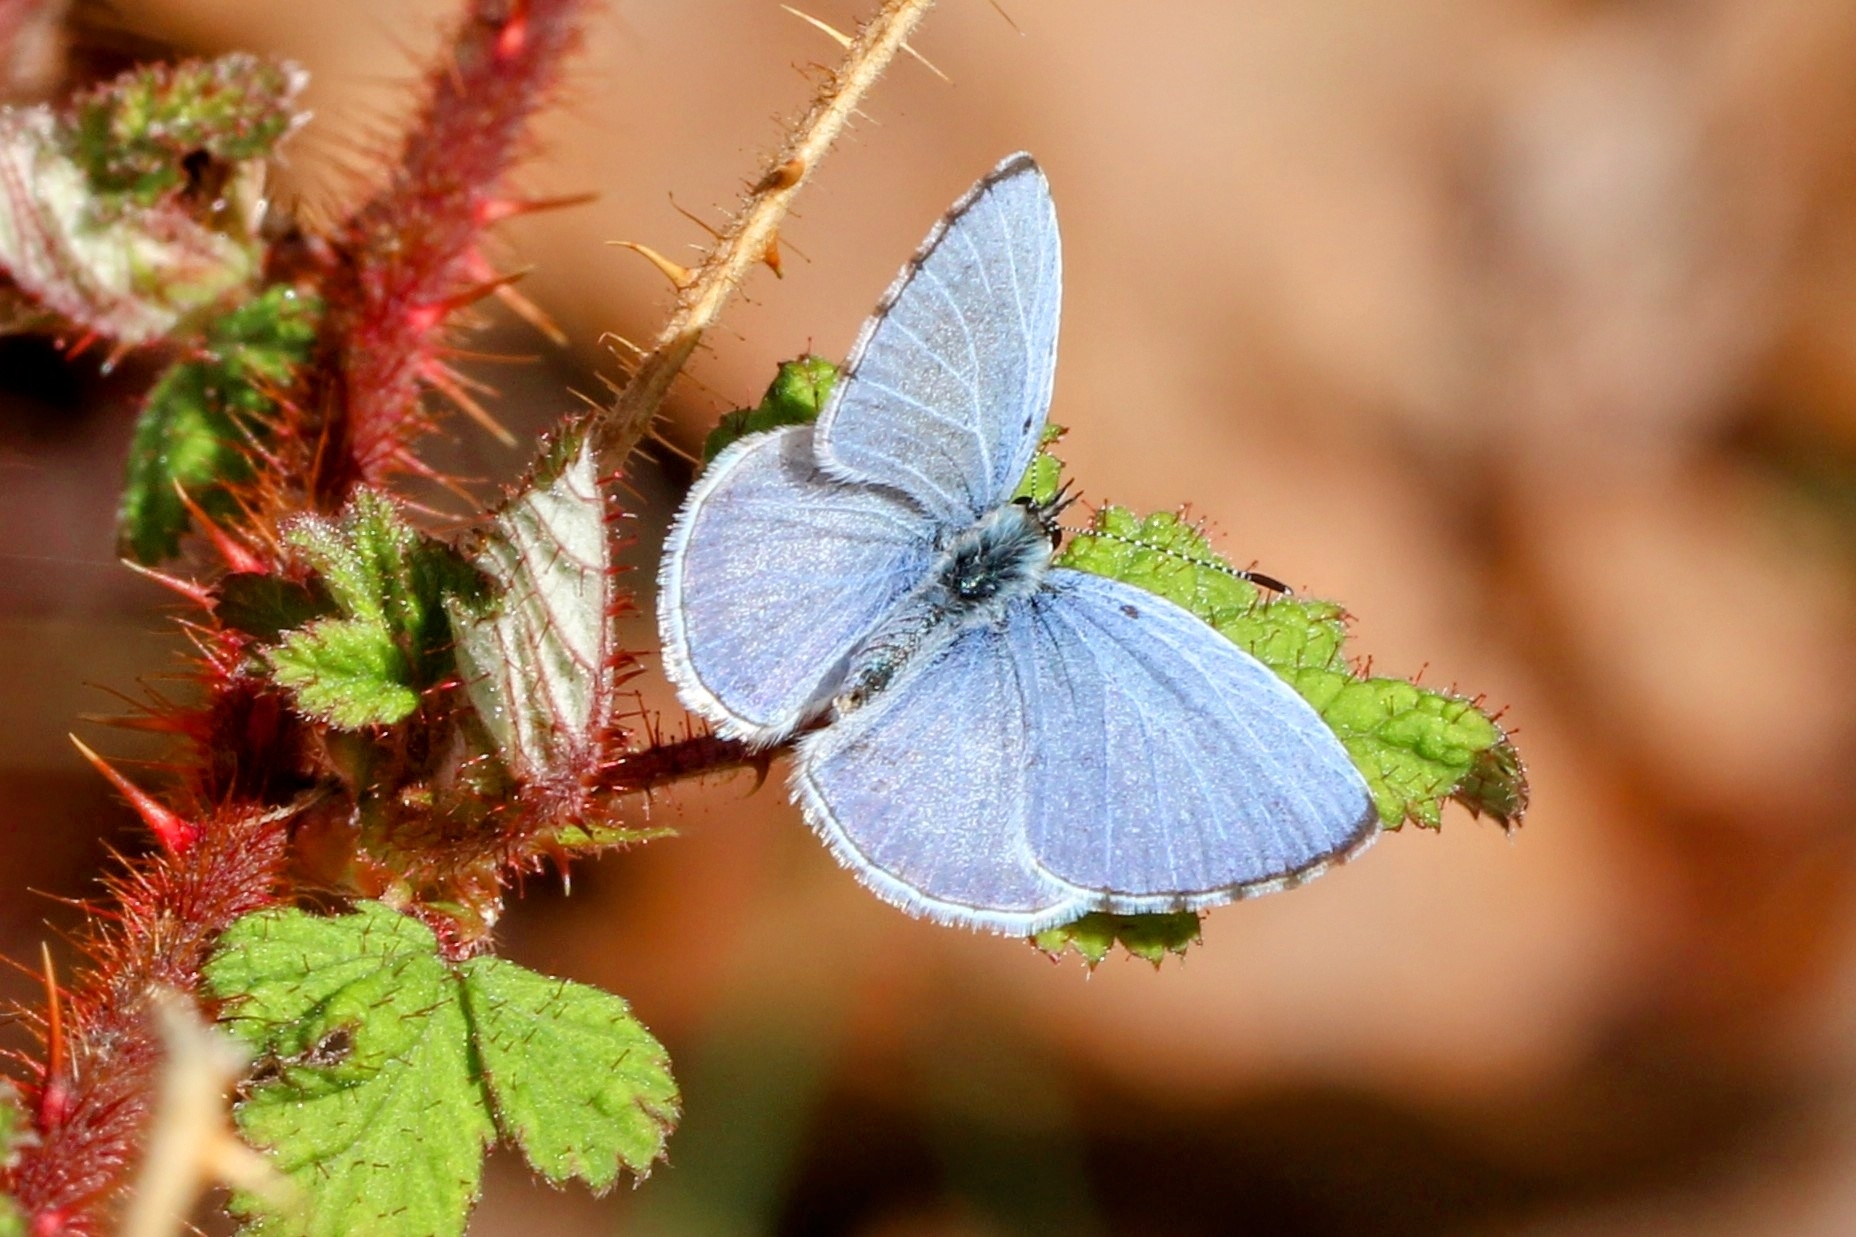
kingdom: Animalia
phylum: Arthropoda
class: Insecta
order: Lepidoptera
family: Lycaenidae
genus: Cyaniris
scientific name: Cyaniris neglecta
